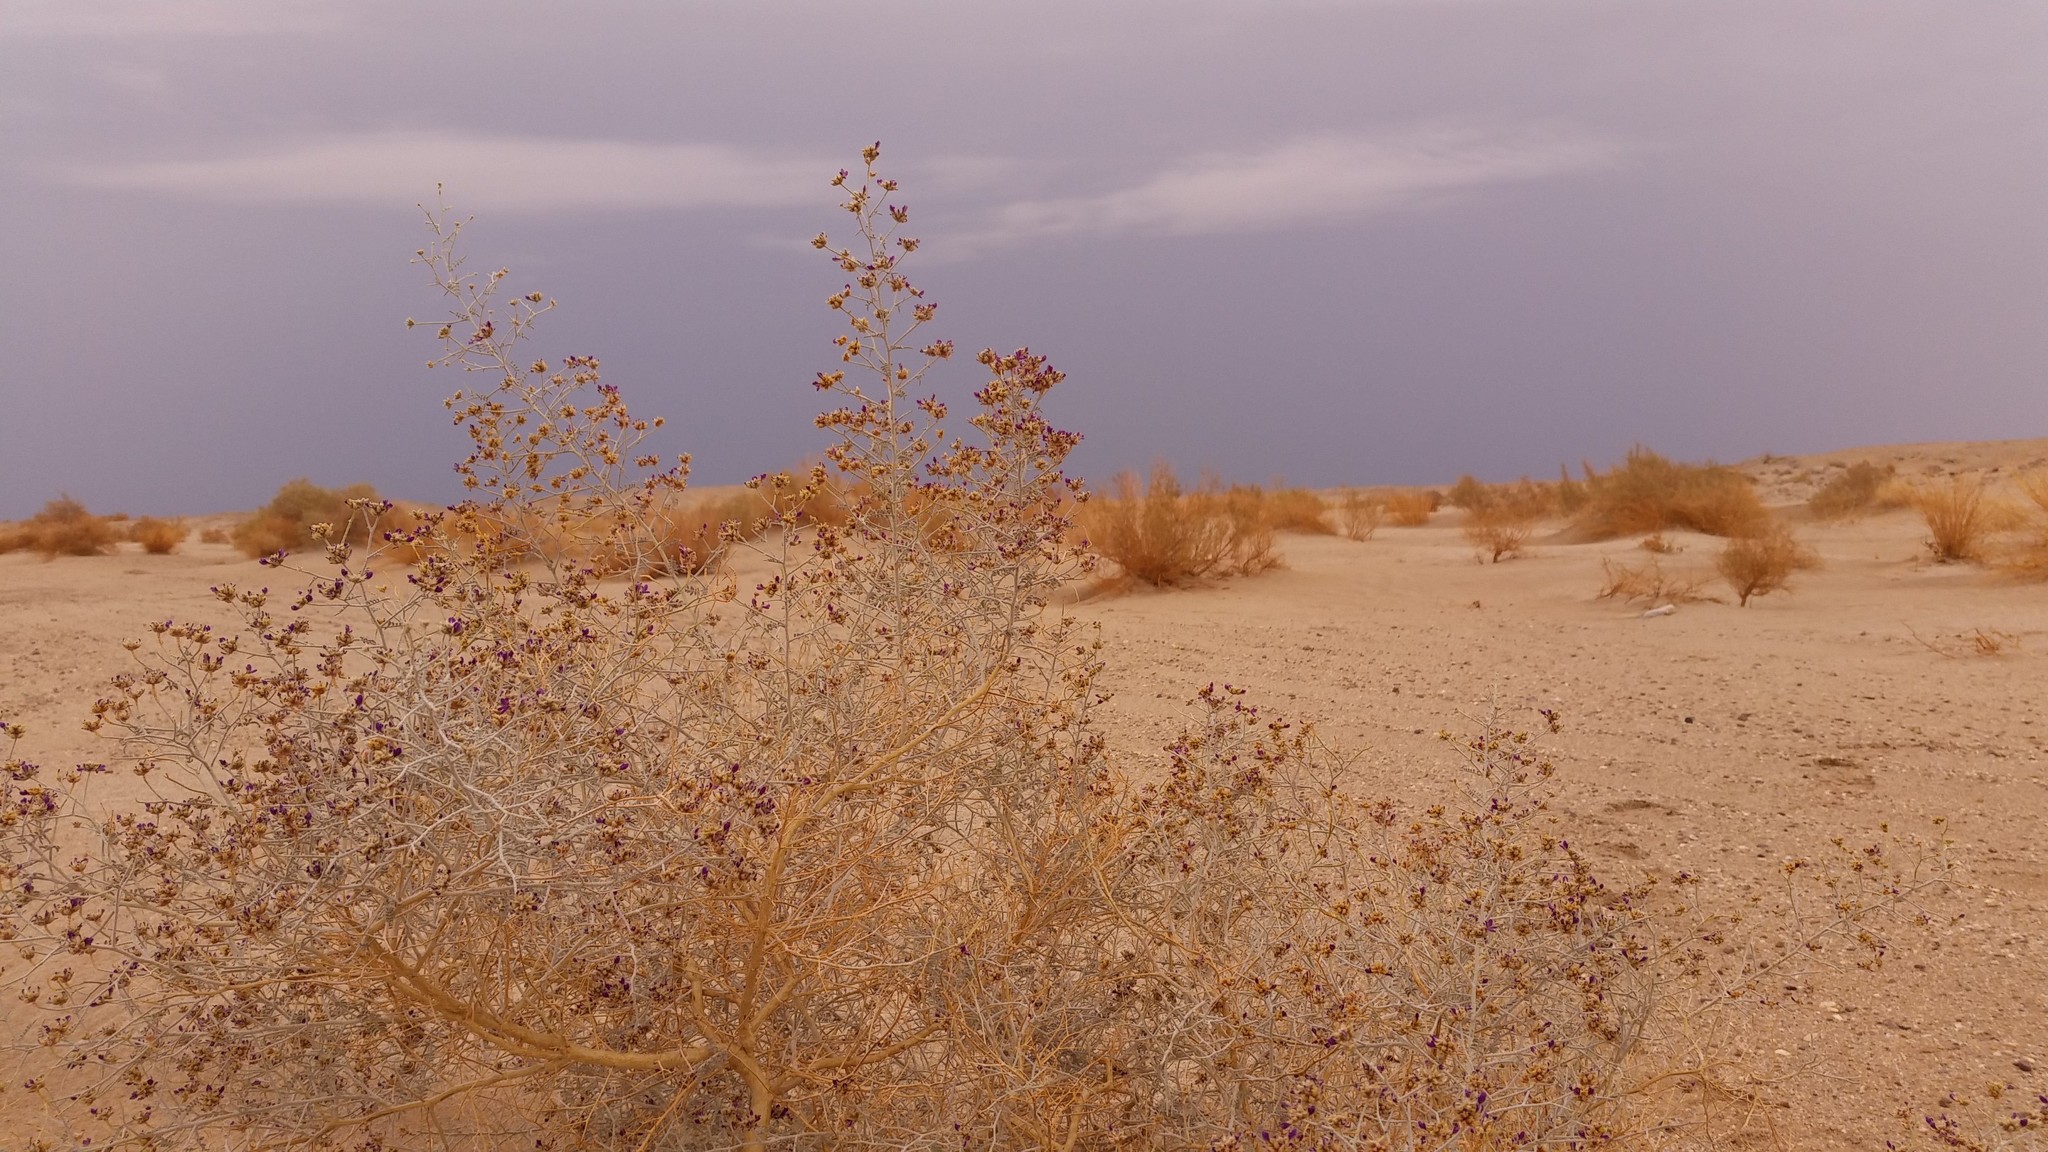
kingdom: Plantae
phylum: Tracheophyta
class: Magnoliopsida
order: Fabales
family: Fabaceae
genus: Psorothamnus
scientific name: Psorothamnus emoryi
